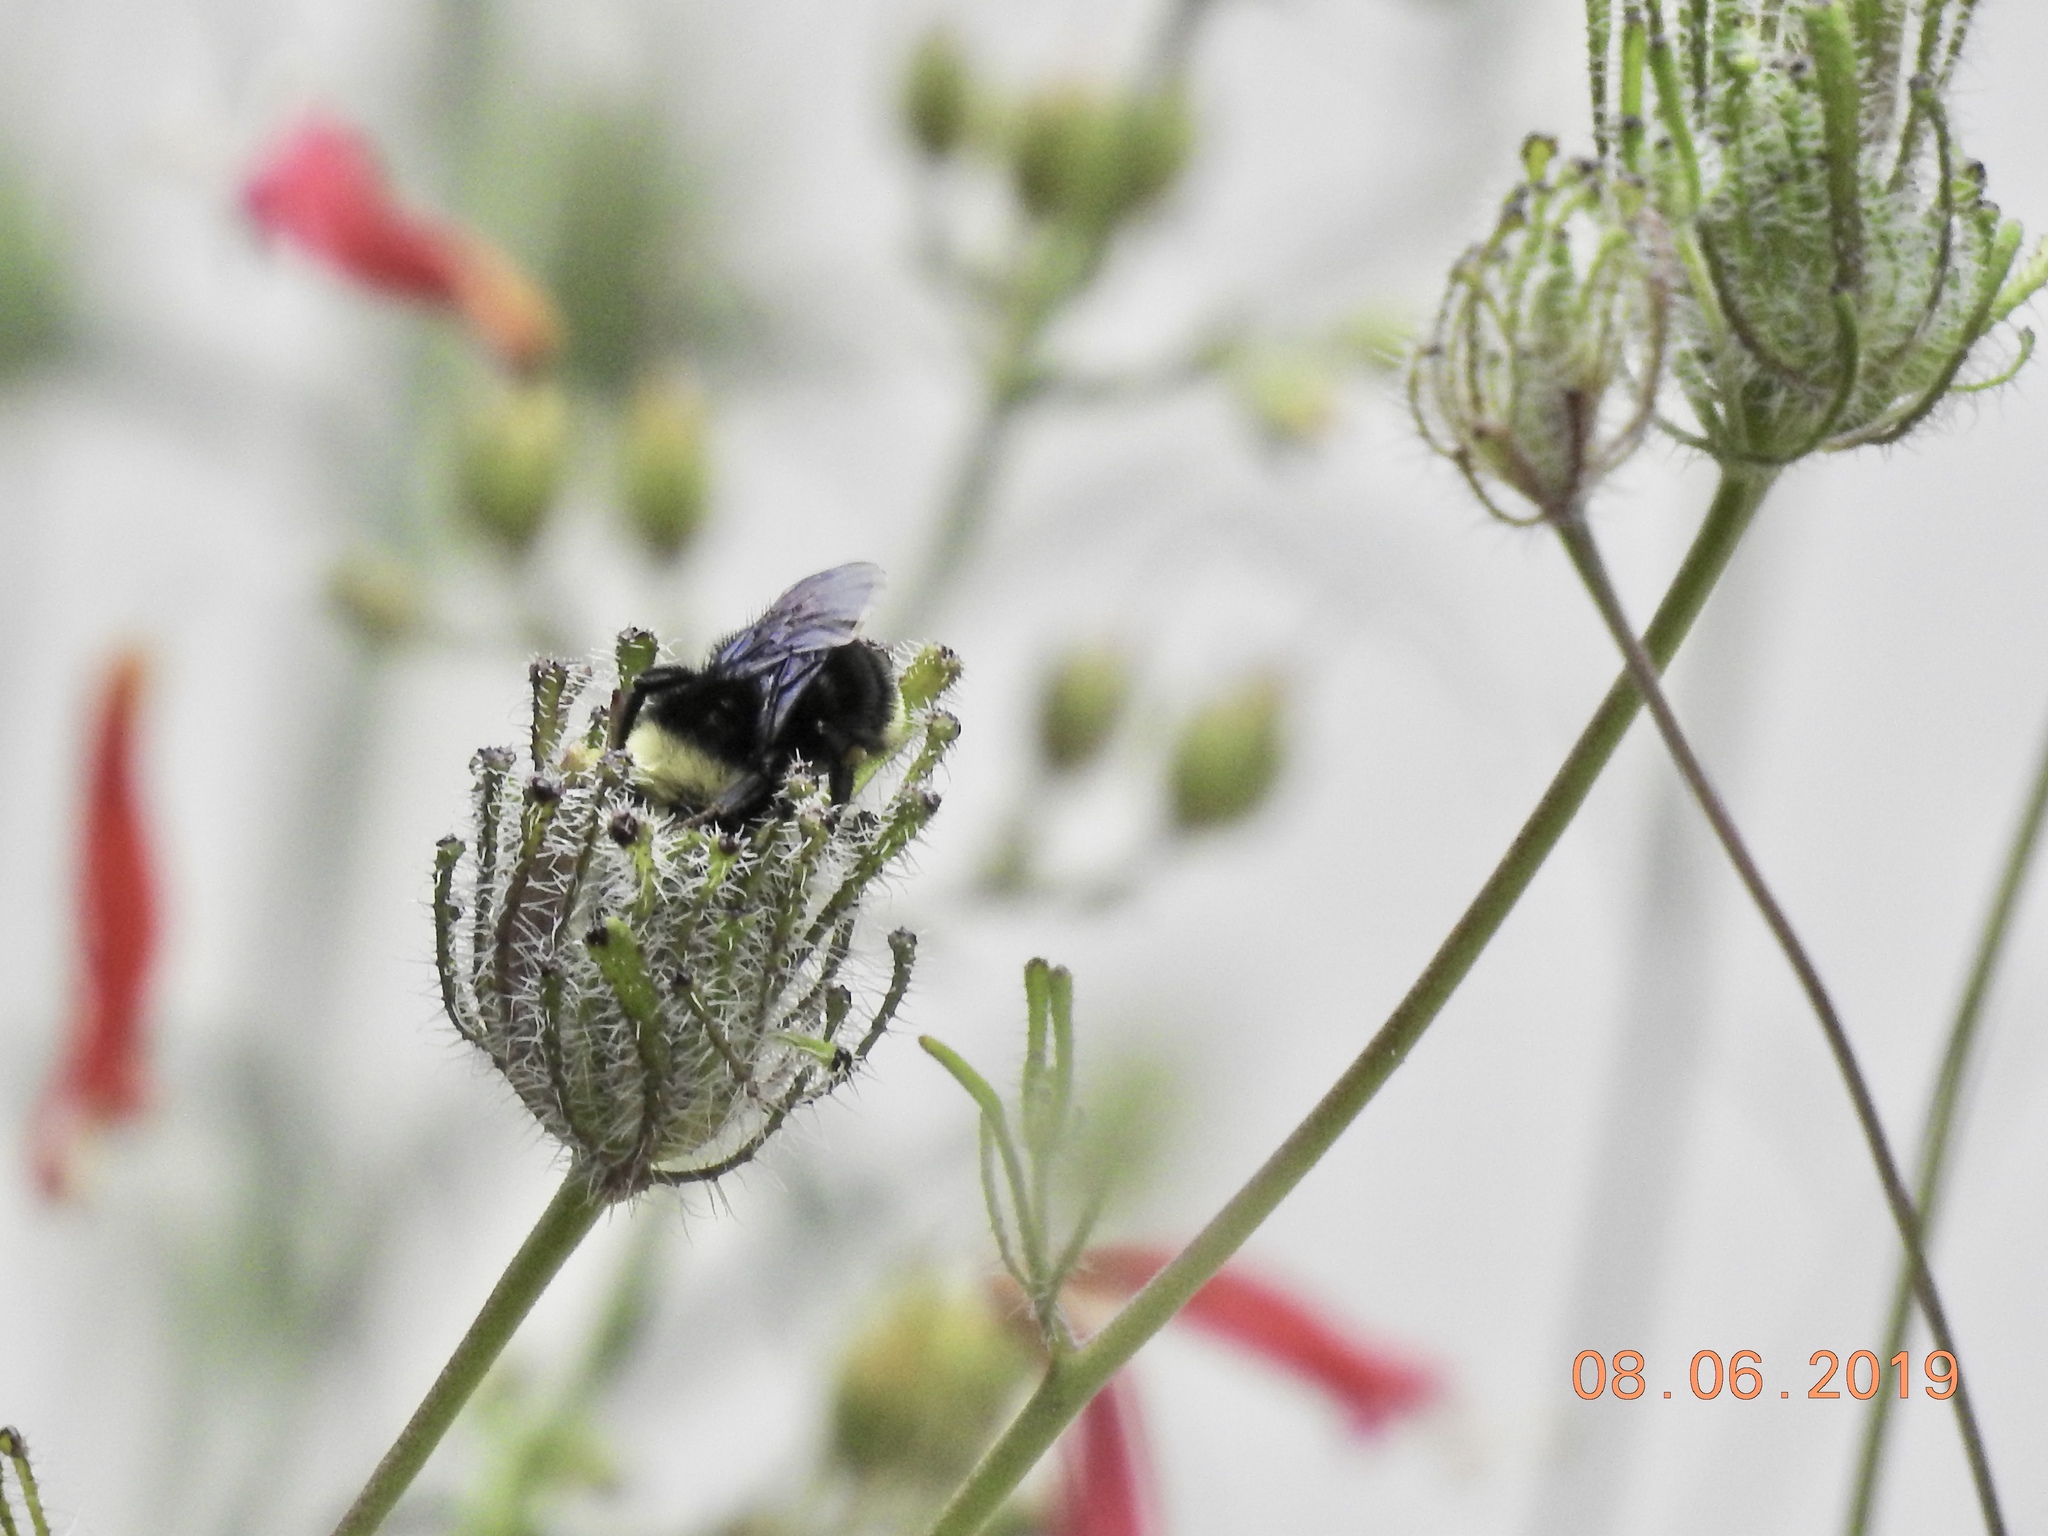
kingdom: Animalia
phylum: Arthropoda
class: Insecta
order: Hymenoptera
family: Apidae
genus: Bombus
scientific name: Bombus vosnesenskii
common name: Vosnesensky bumble bee
